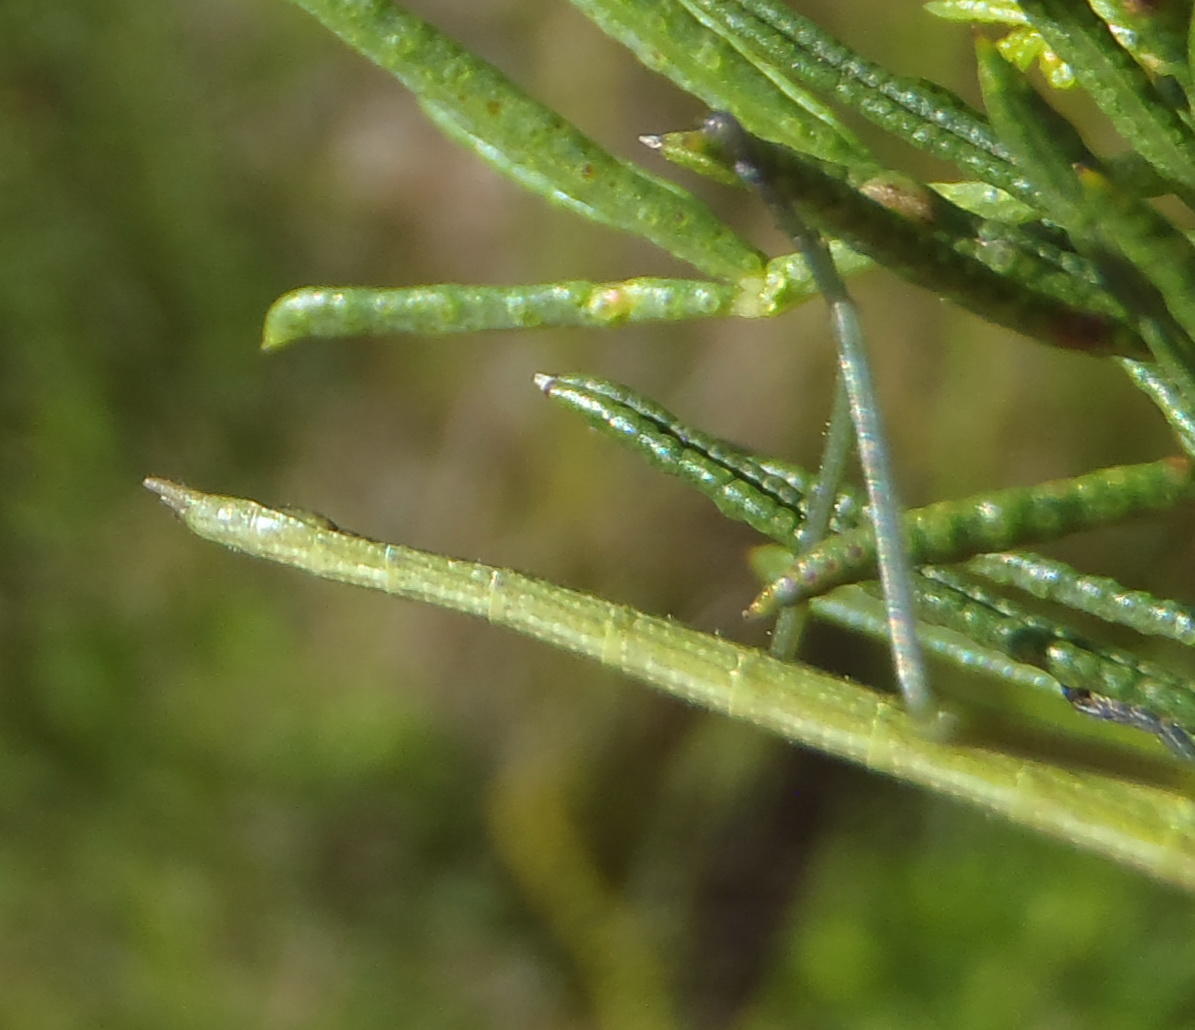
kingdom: Animalia
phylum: Arthropoda
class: Insecta
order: Phasmida
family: Bacillidae
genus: Macynia
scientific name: Macynia labiata
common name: Thunberg's stick insect
